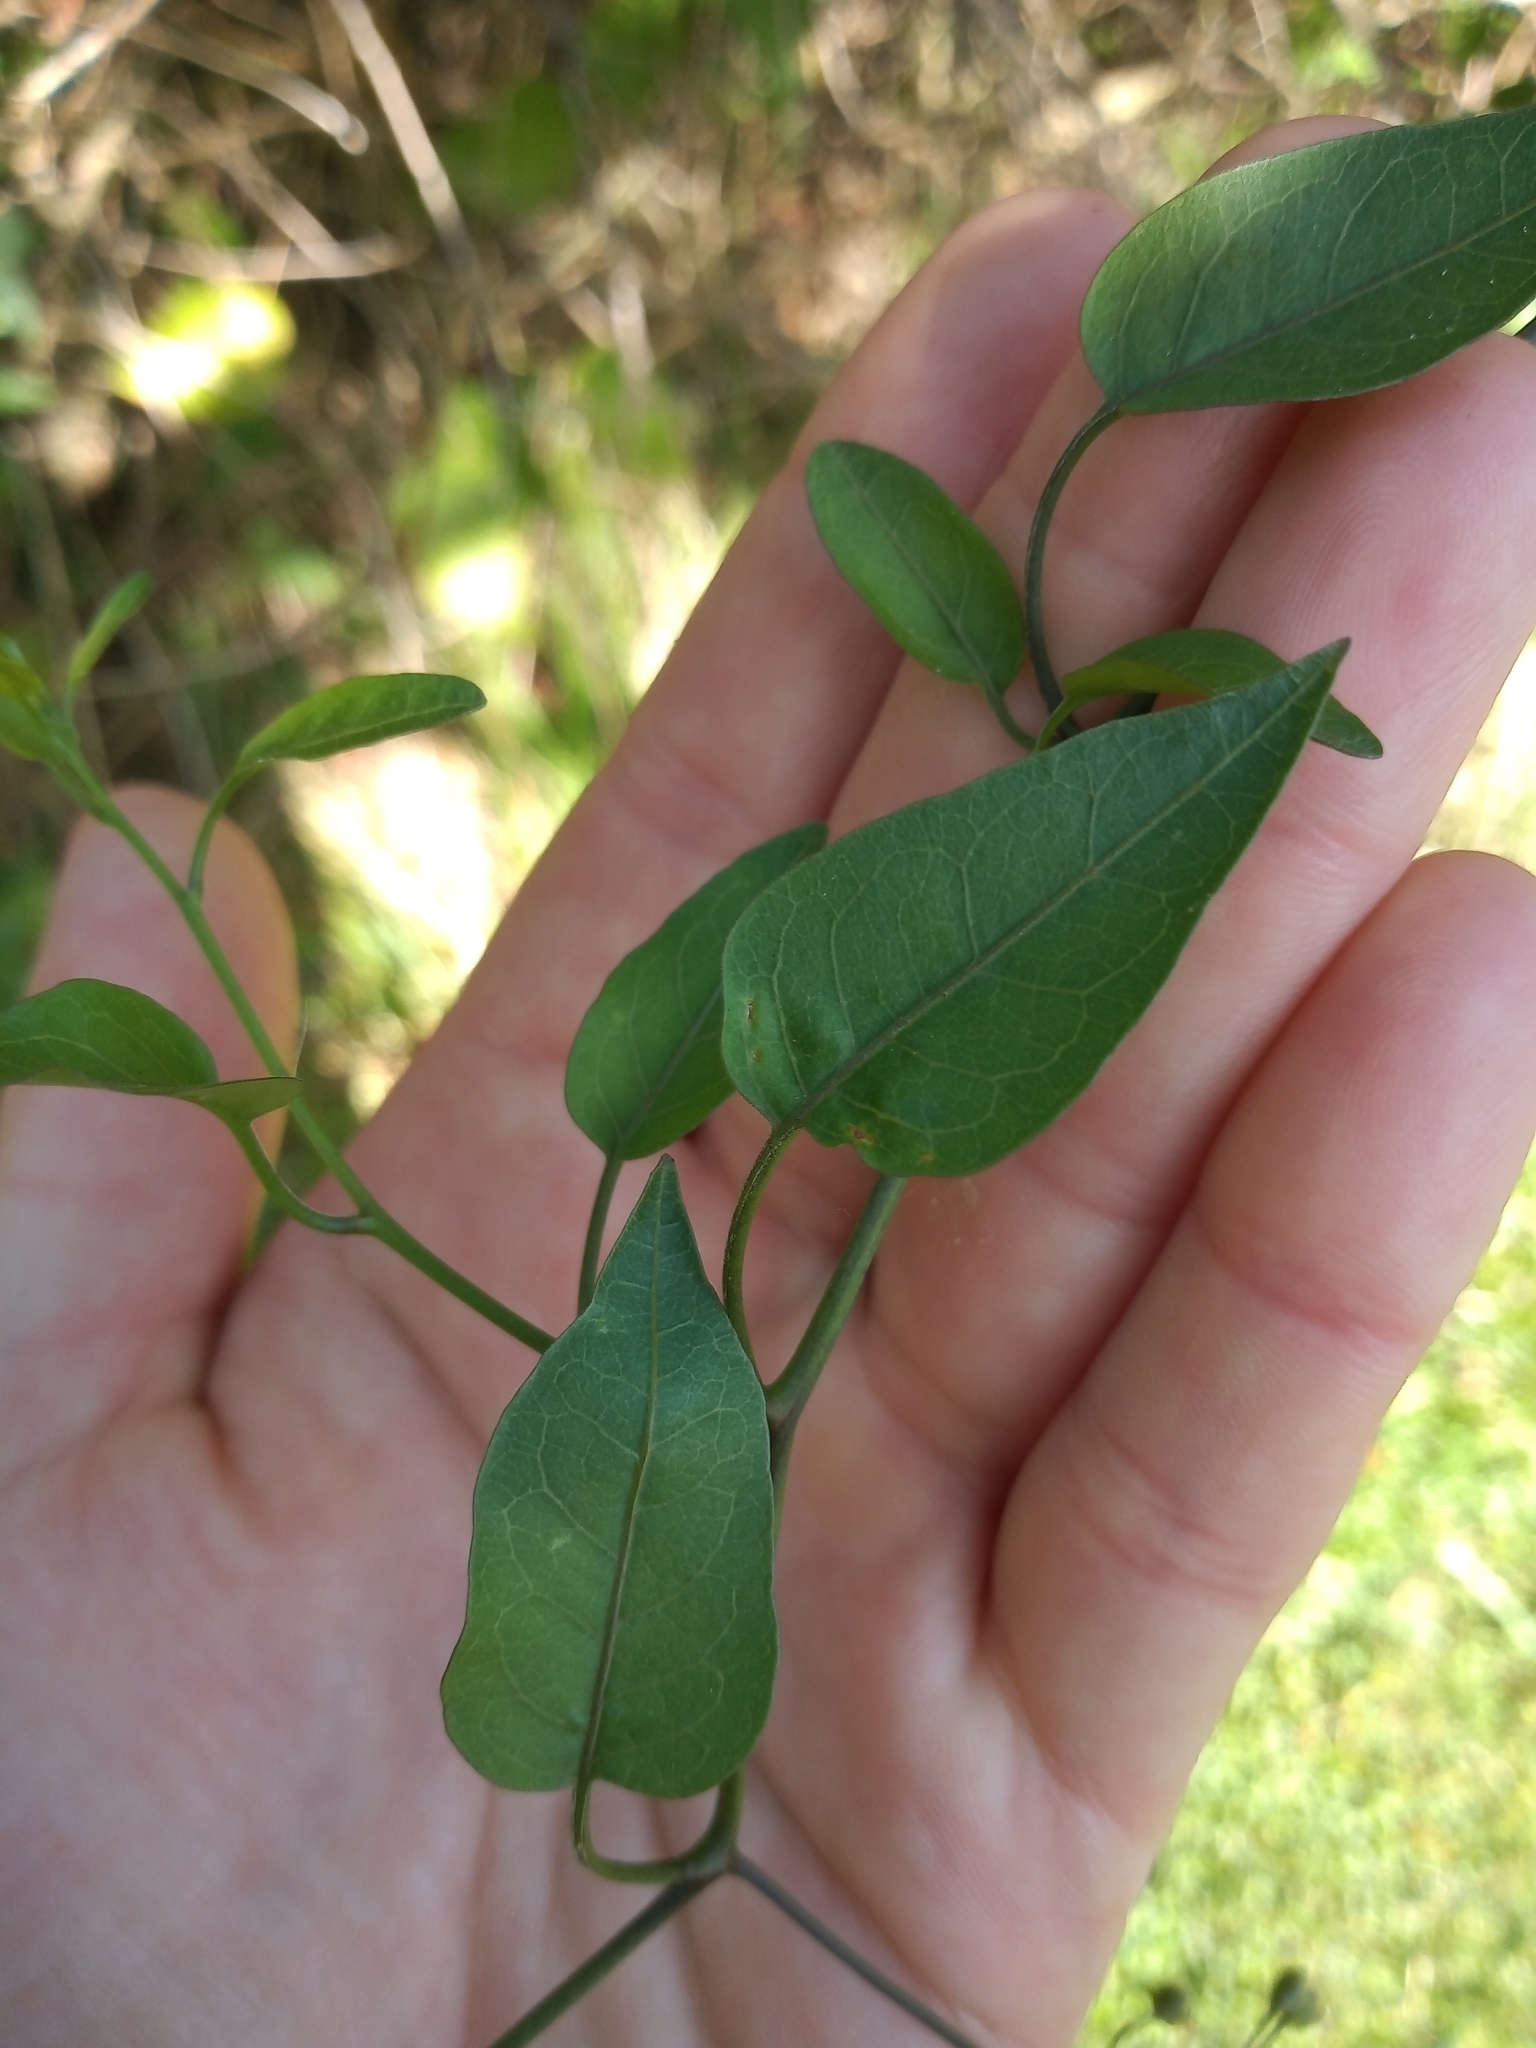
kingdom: Plantae
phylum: Tracheophyta
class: Magnoliopsida
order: Solanales
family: Solanaceae
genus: Solanum
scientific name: Solanum laxum
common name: Nightshade
